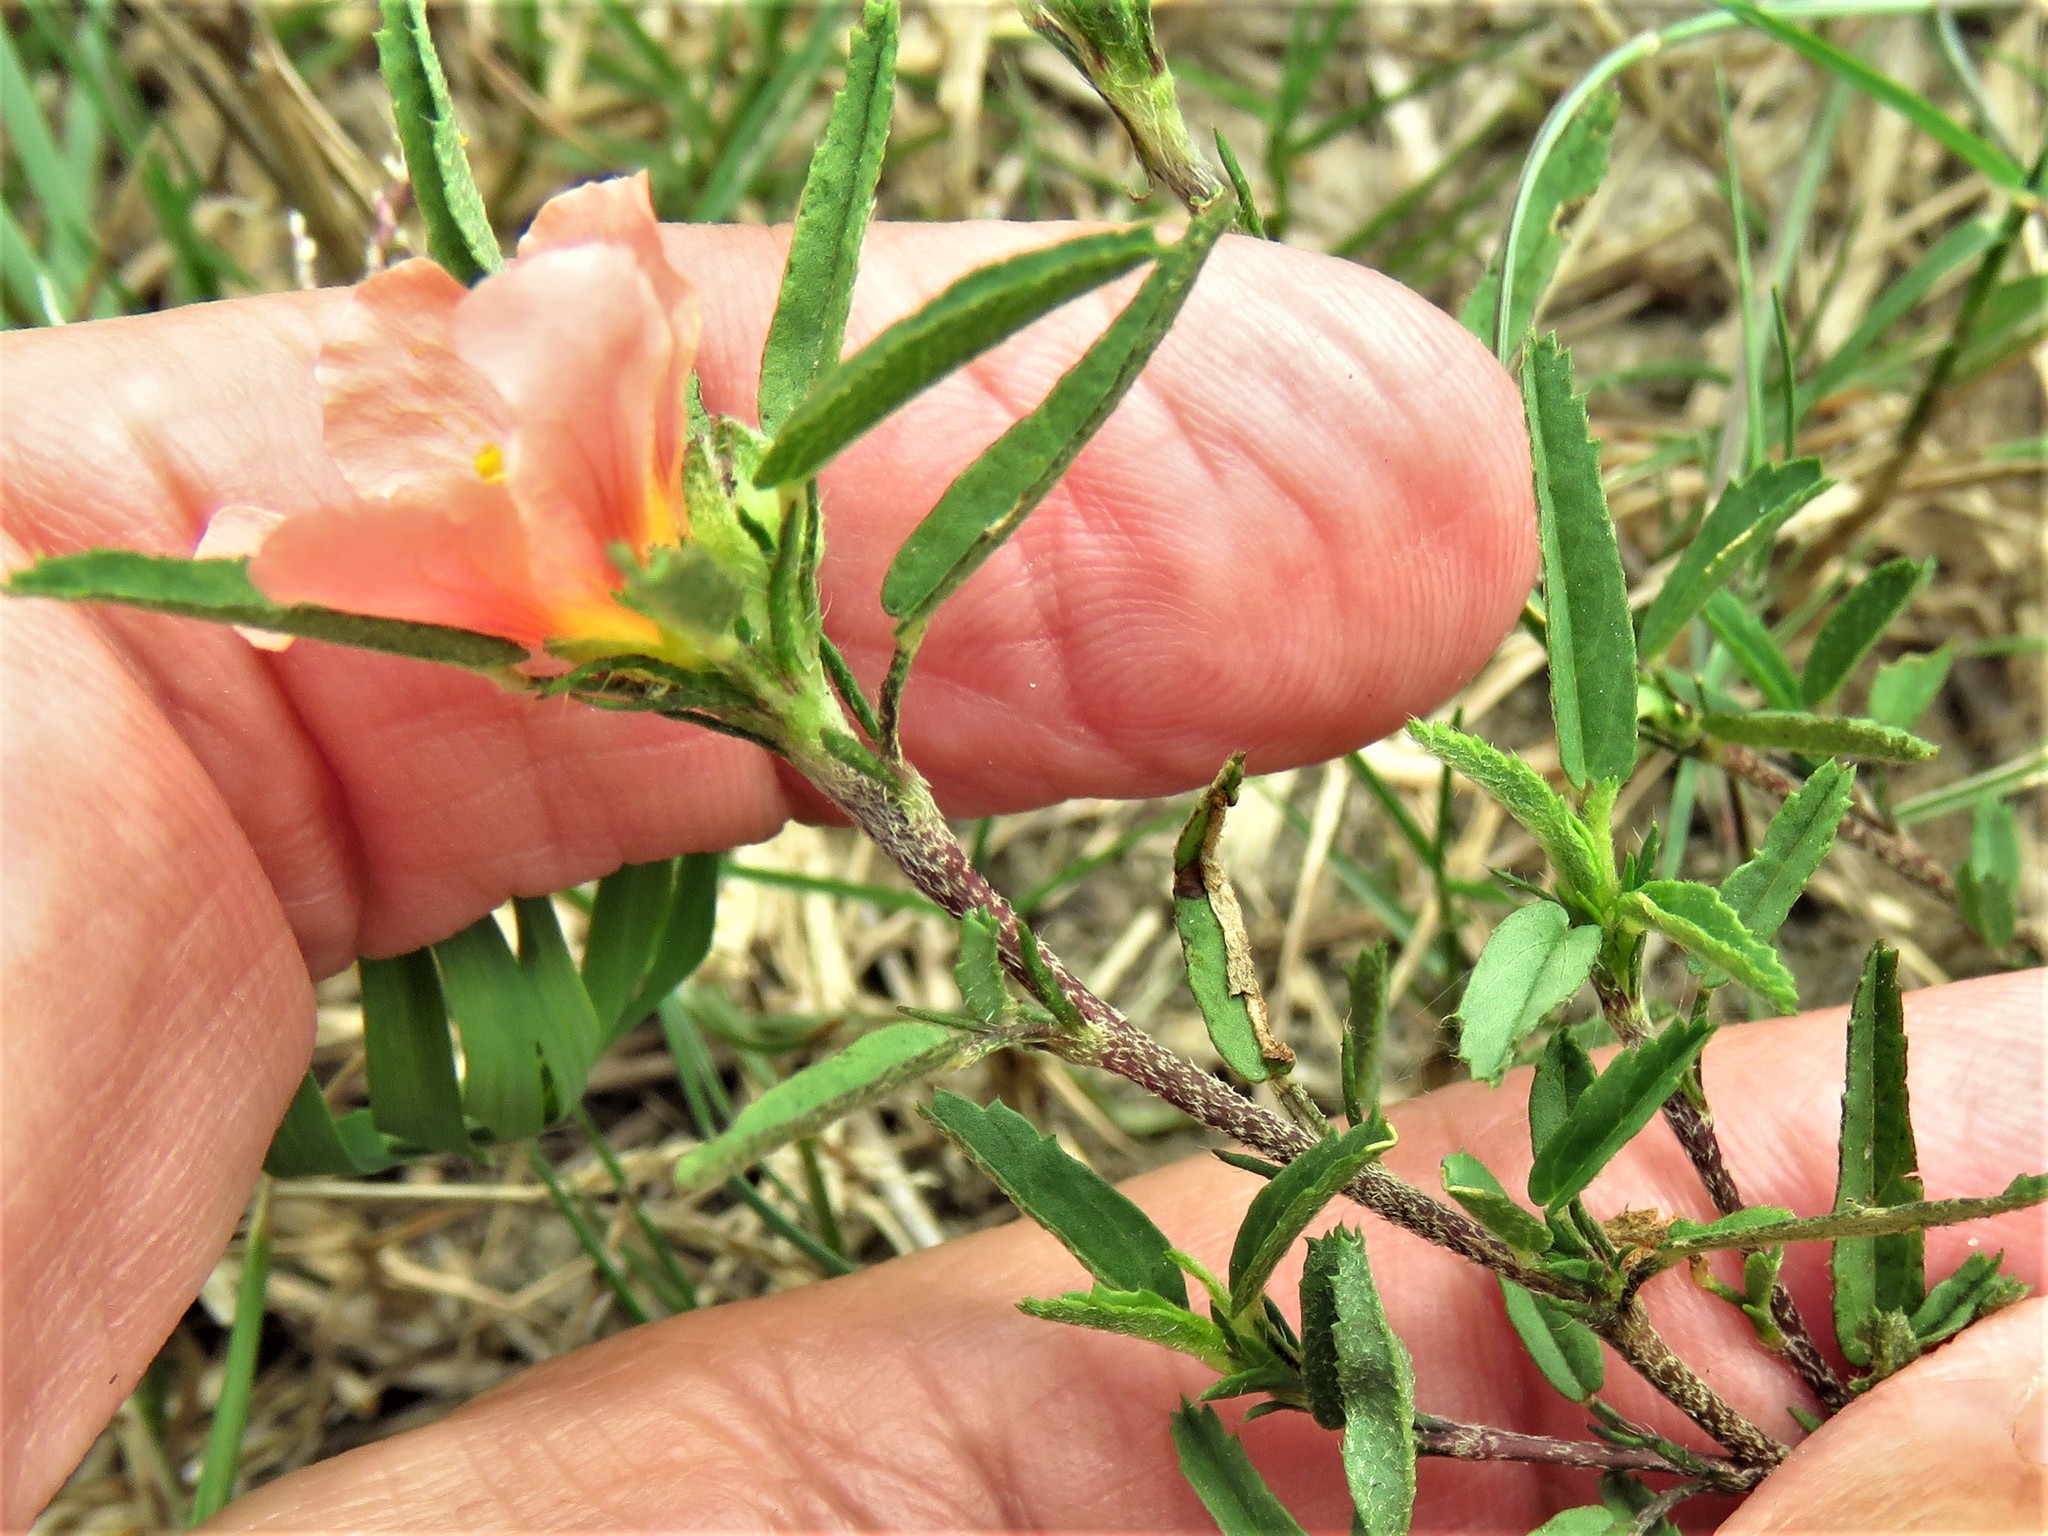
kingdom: Plantae
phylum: Tracheophyta
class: Magnoliopsida
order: Malvales
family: Malvaceae
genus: Sida
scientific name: Sida ciliaris
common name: Bracted fanpetals
